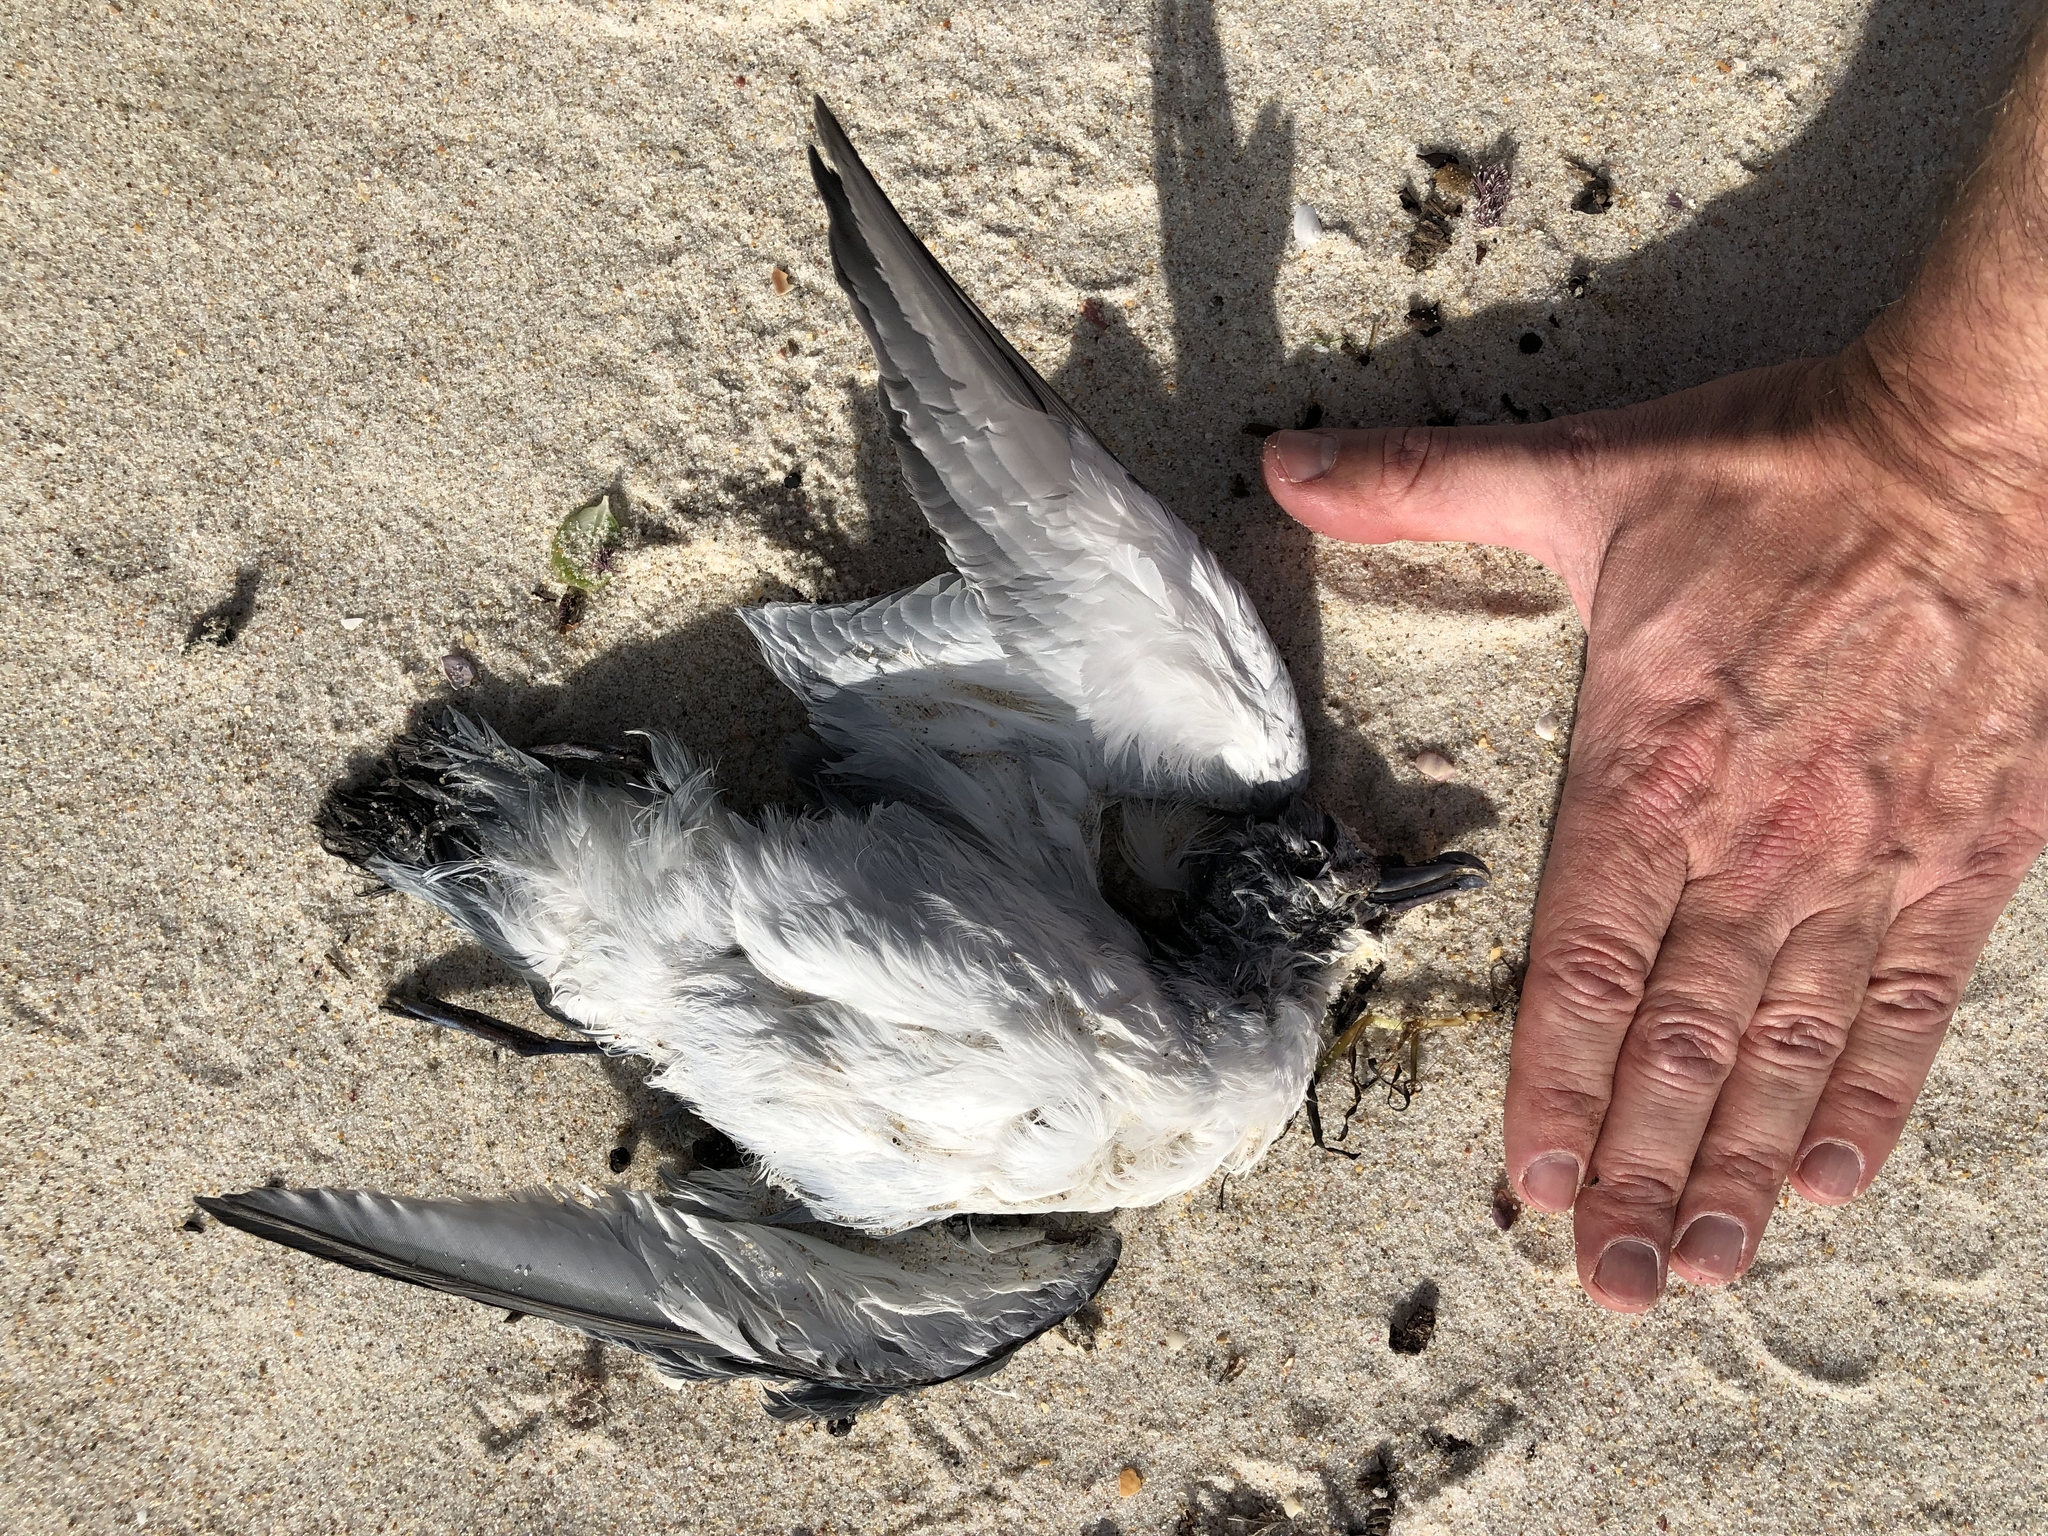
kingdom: Animalia
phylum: Chordata
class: Aves
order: Procellariiformes
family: Procellariidae
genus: Pachyptila
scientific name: Pachyptila turtur
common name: Fairy prion
